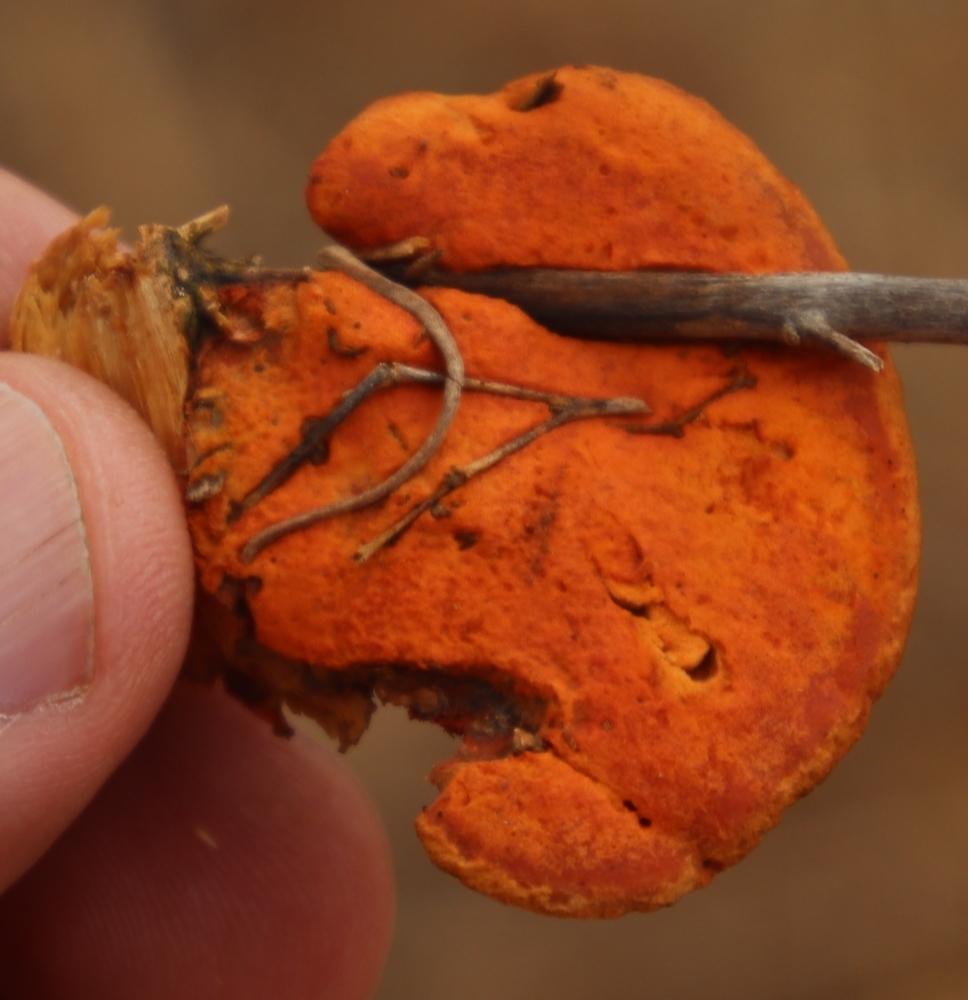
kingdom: Fungi
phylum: Basidiomycota
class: Agaricomycetes
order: Polyporales
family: Polyporaceae
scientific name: Polyporaceae
